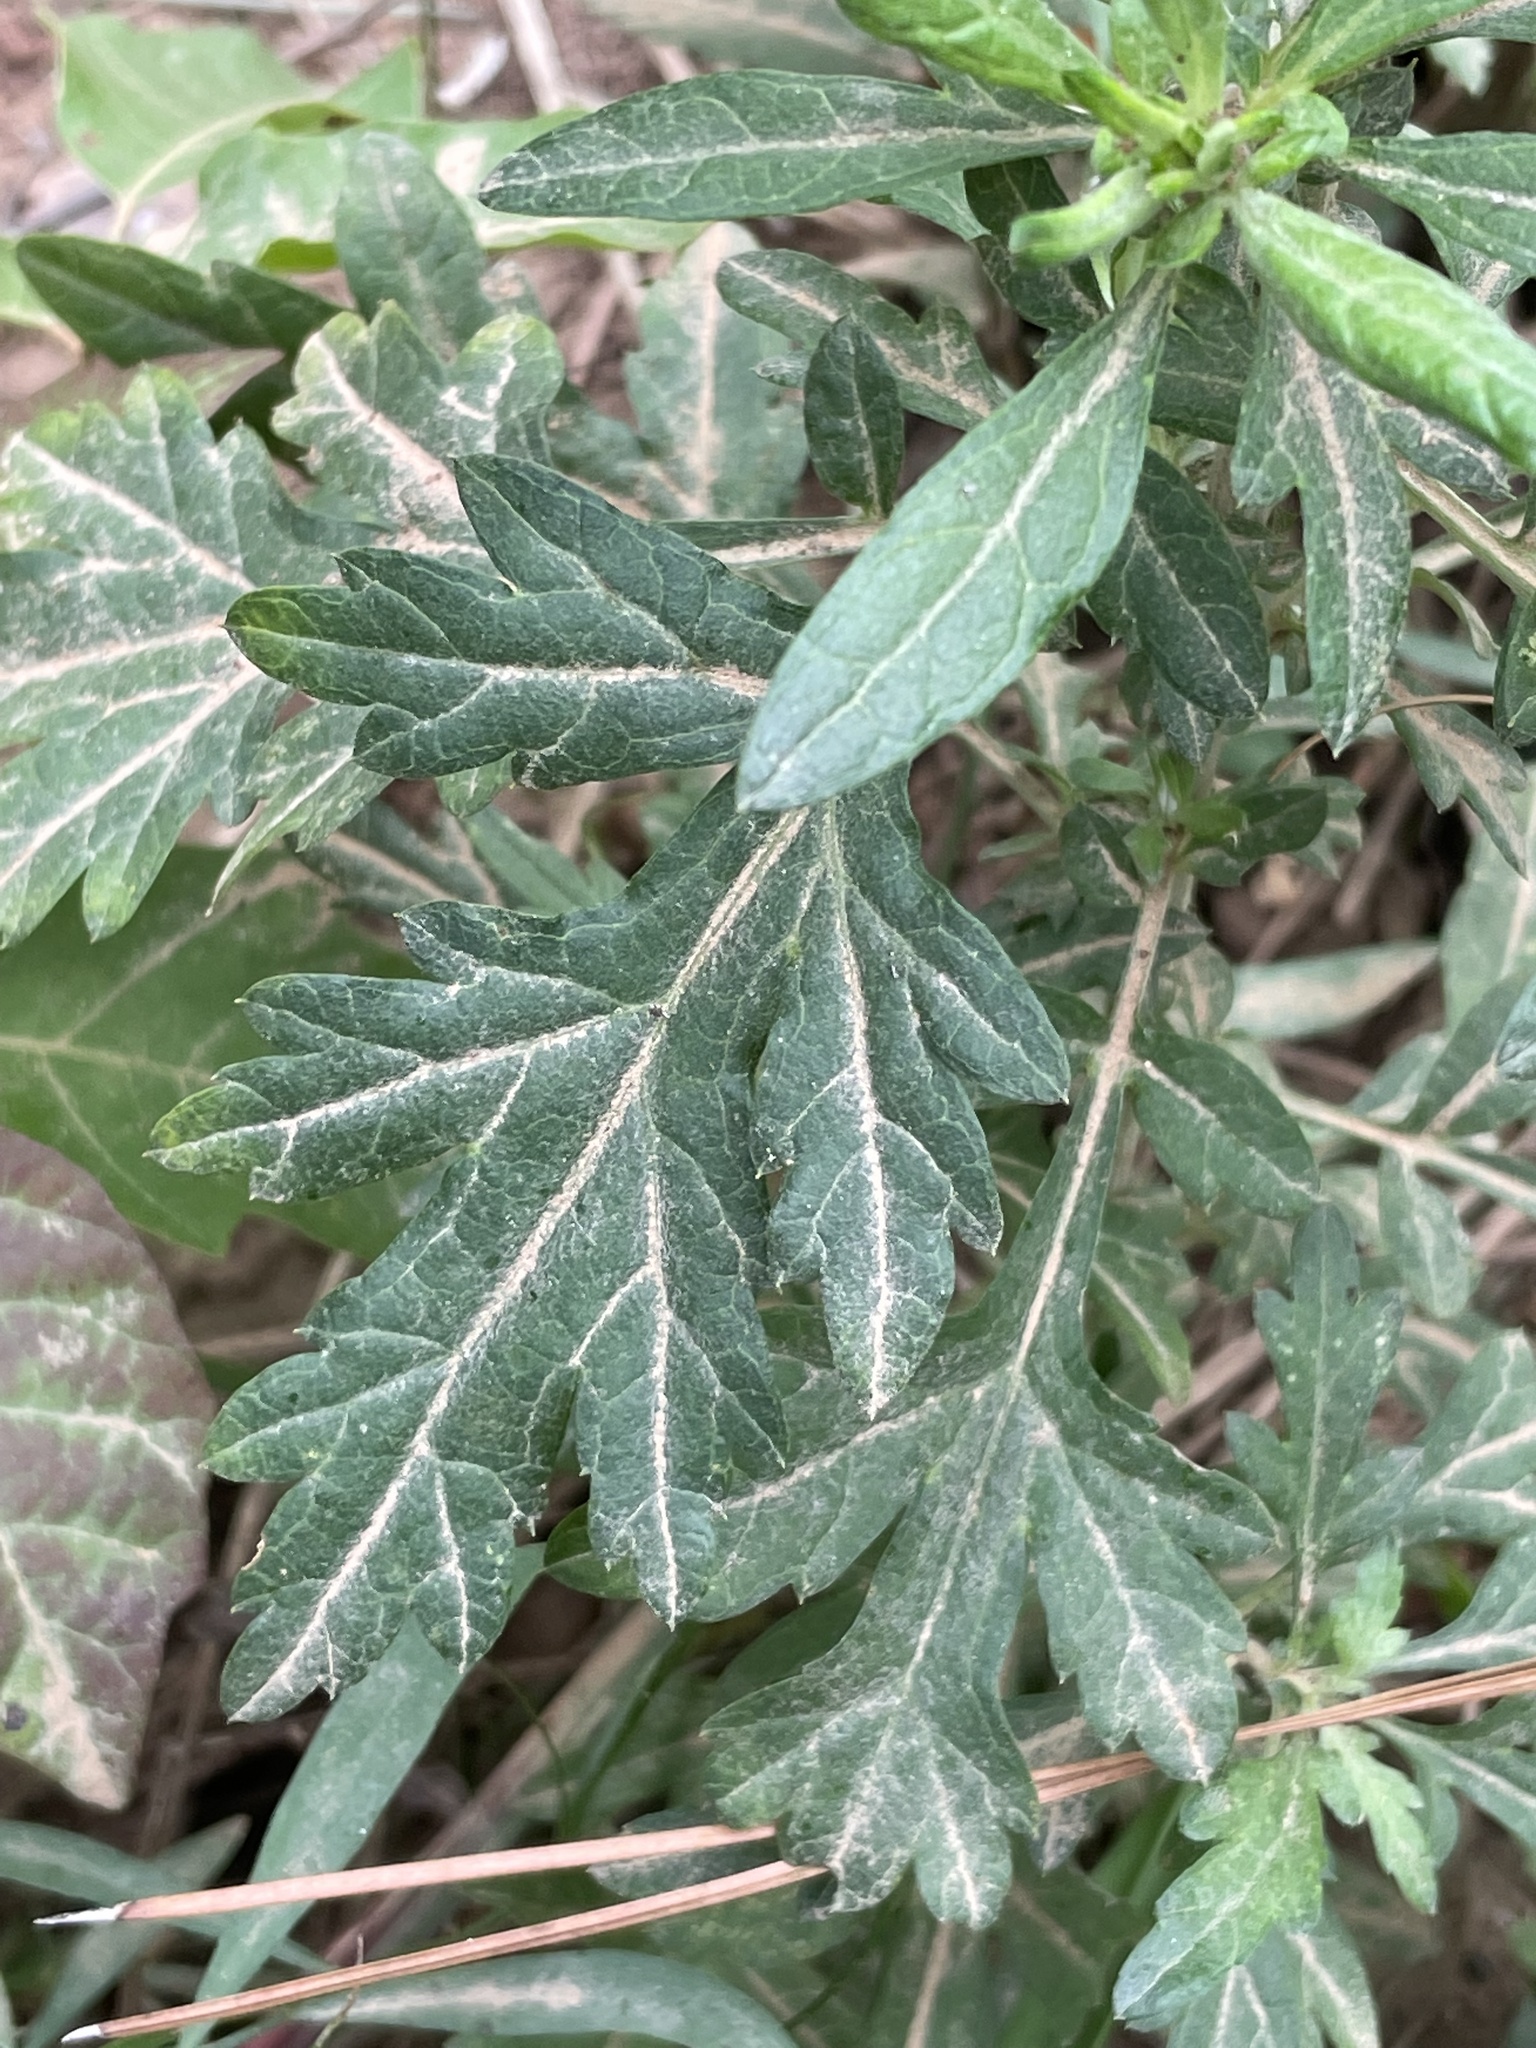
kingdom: Plantae
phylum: Tracheophyta
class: Magnoliopsida
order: Asterales
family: Asteraceae
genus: Artemisia
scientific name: Artemisia vulgaris
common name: Mugwort
